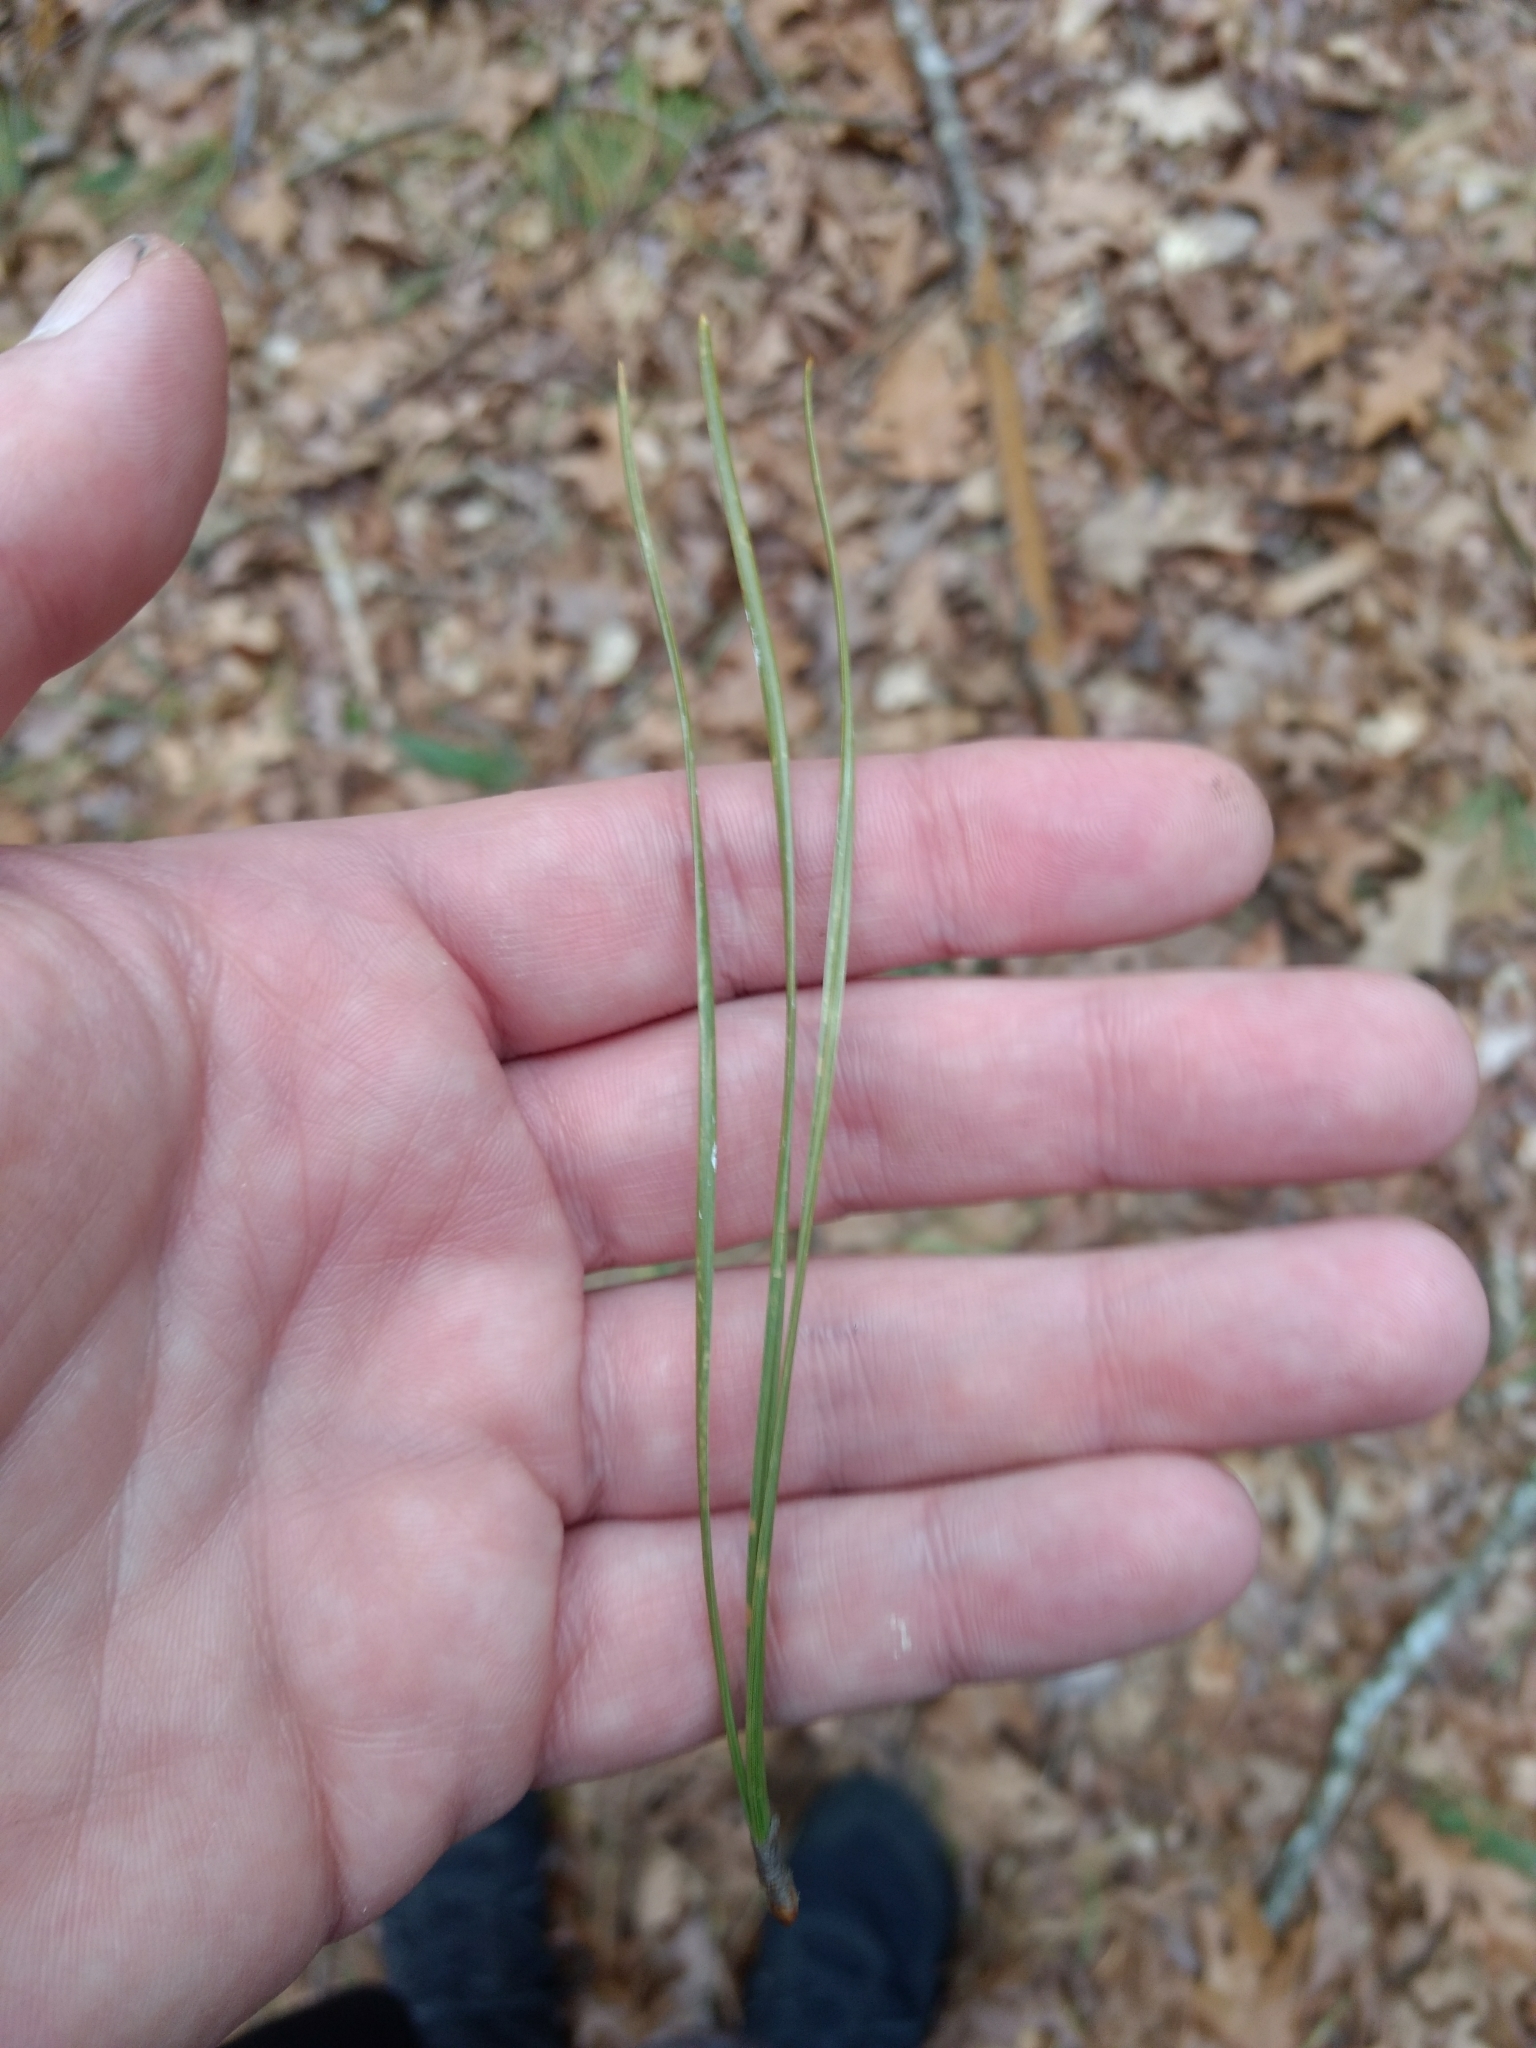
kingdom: Plantae
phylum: Tracheophyta
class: Pinopsida
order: Pinales
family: Pinaceae
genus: Pinus
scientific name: Pinus rigida
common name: Pitch pine
